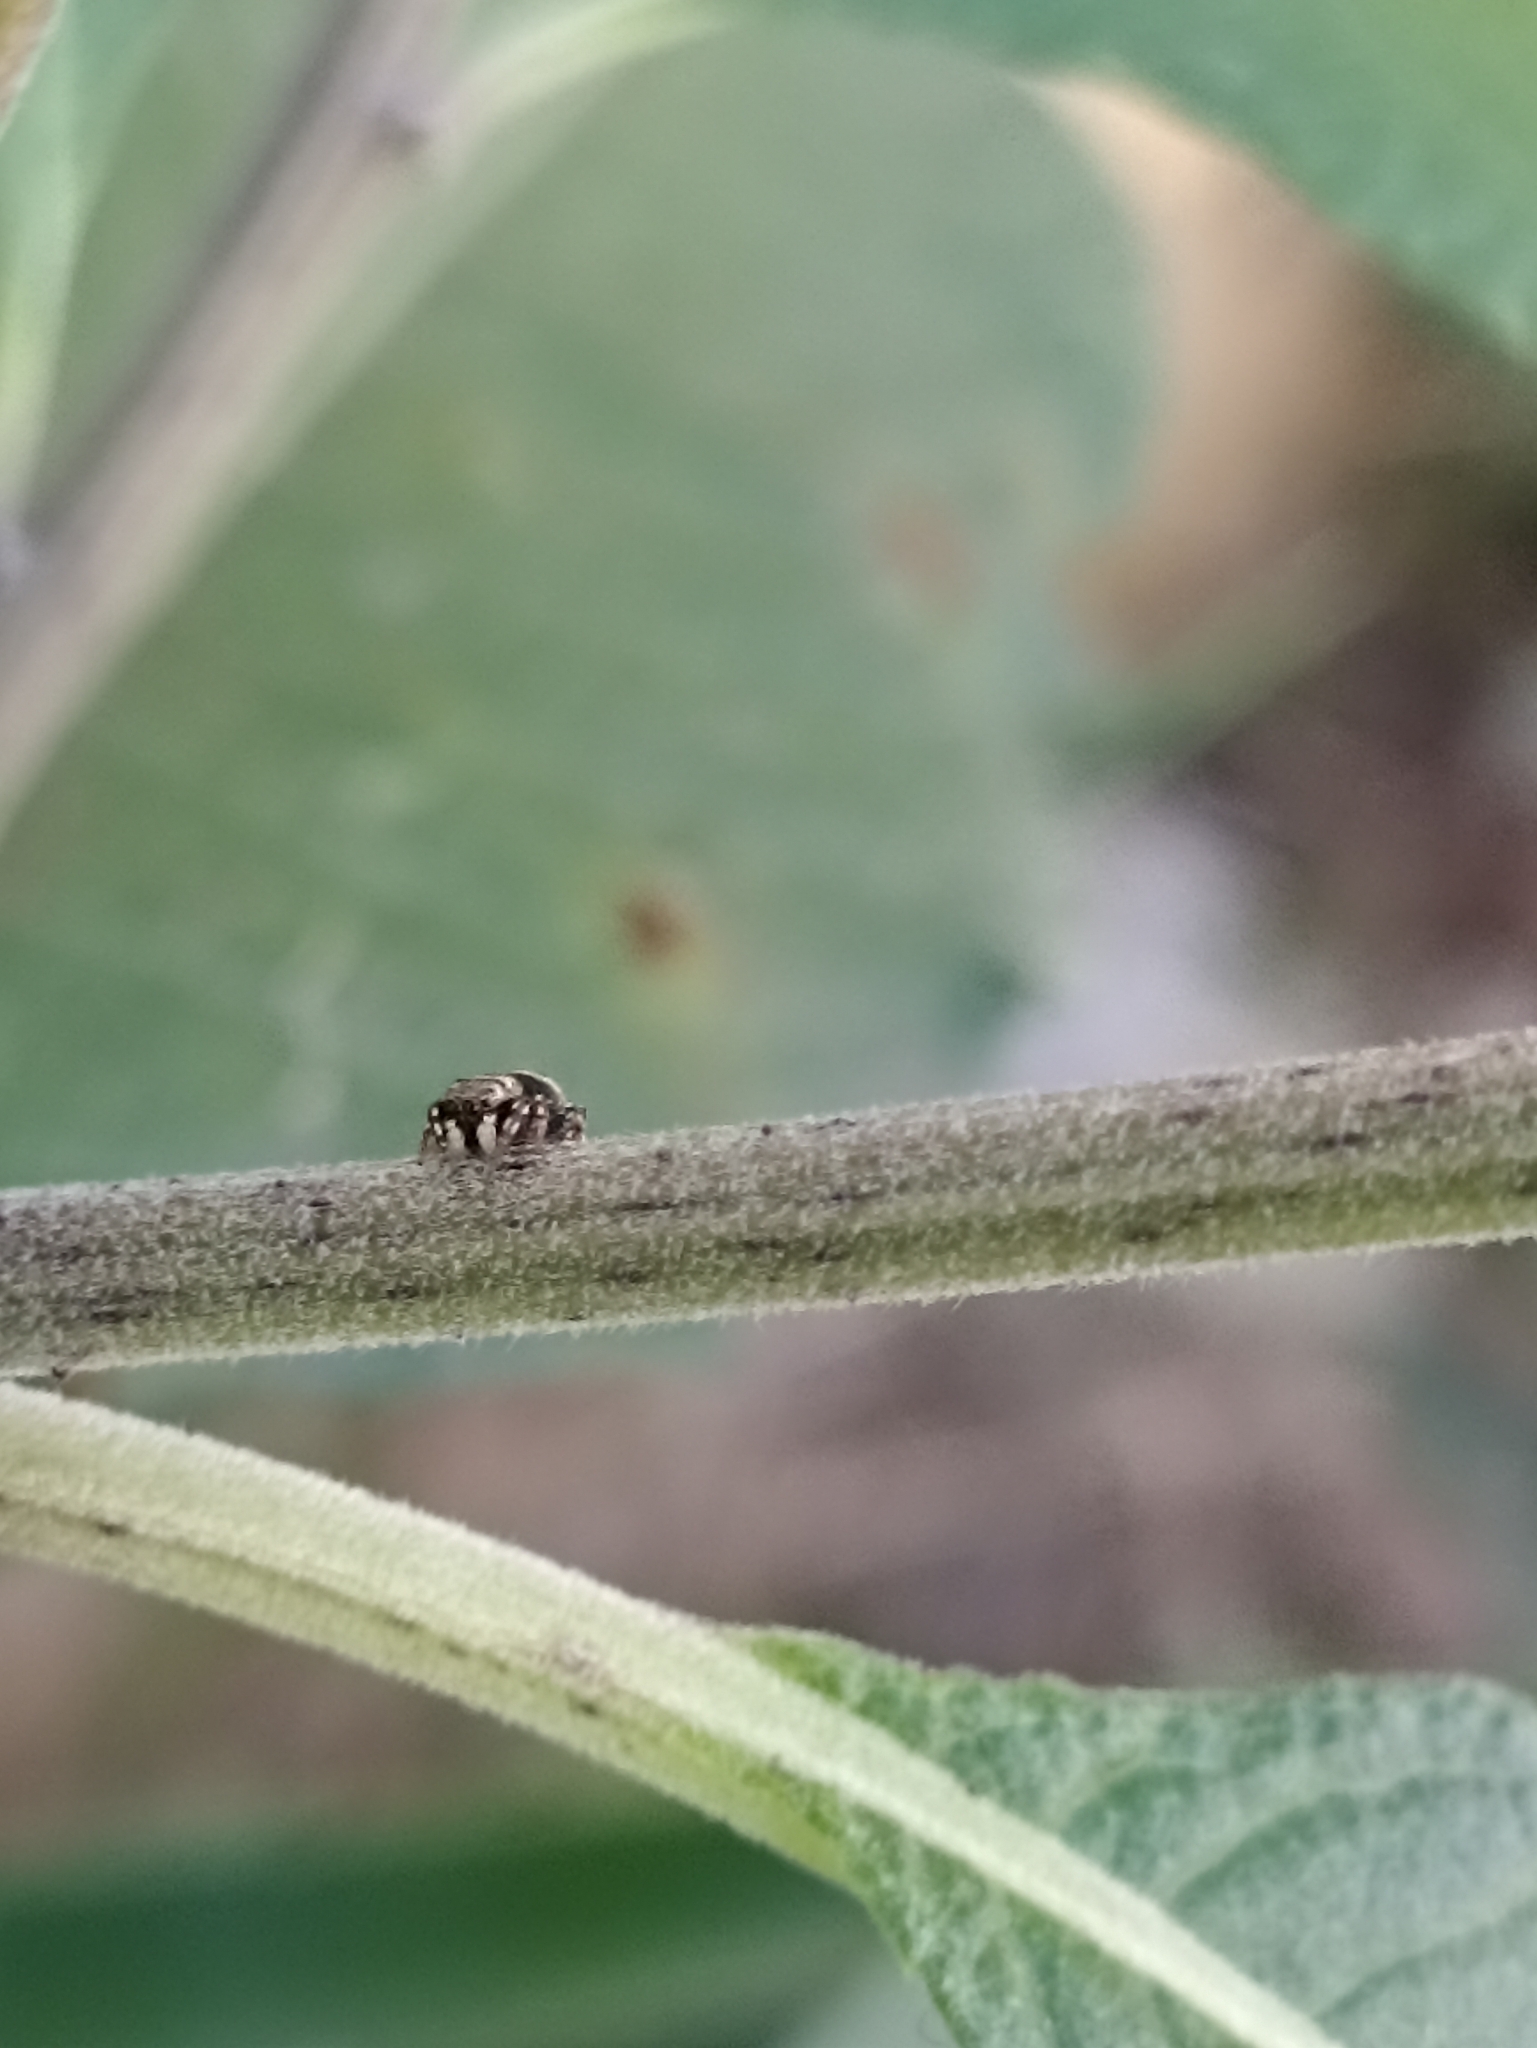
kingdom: Animalia
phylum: Arthropoda
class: Arachnida
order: Araneae
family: Salticidae
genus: Heliophanus
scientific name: Heliophanus hamifer
